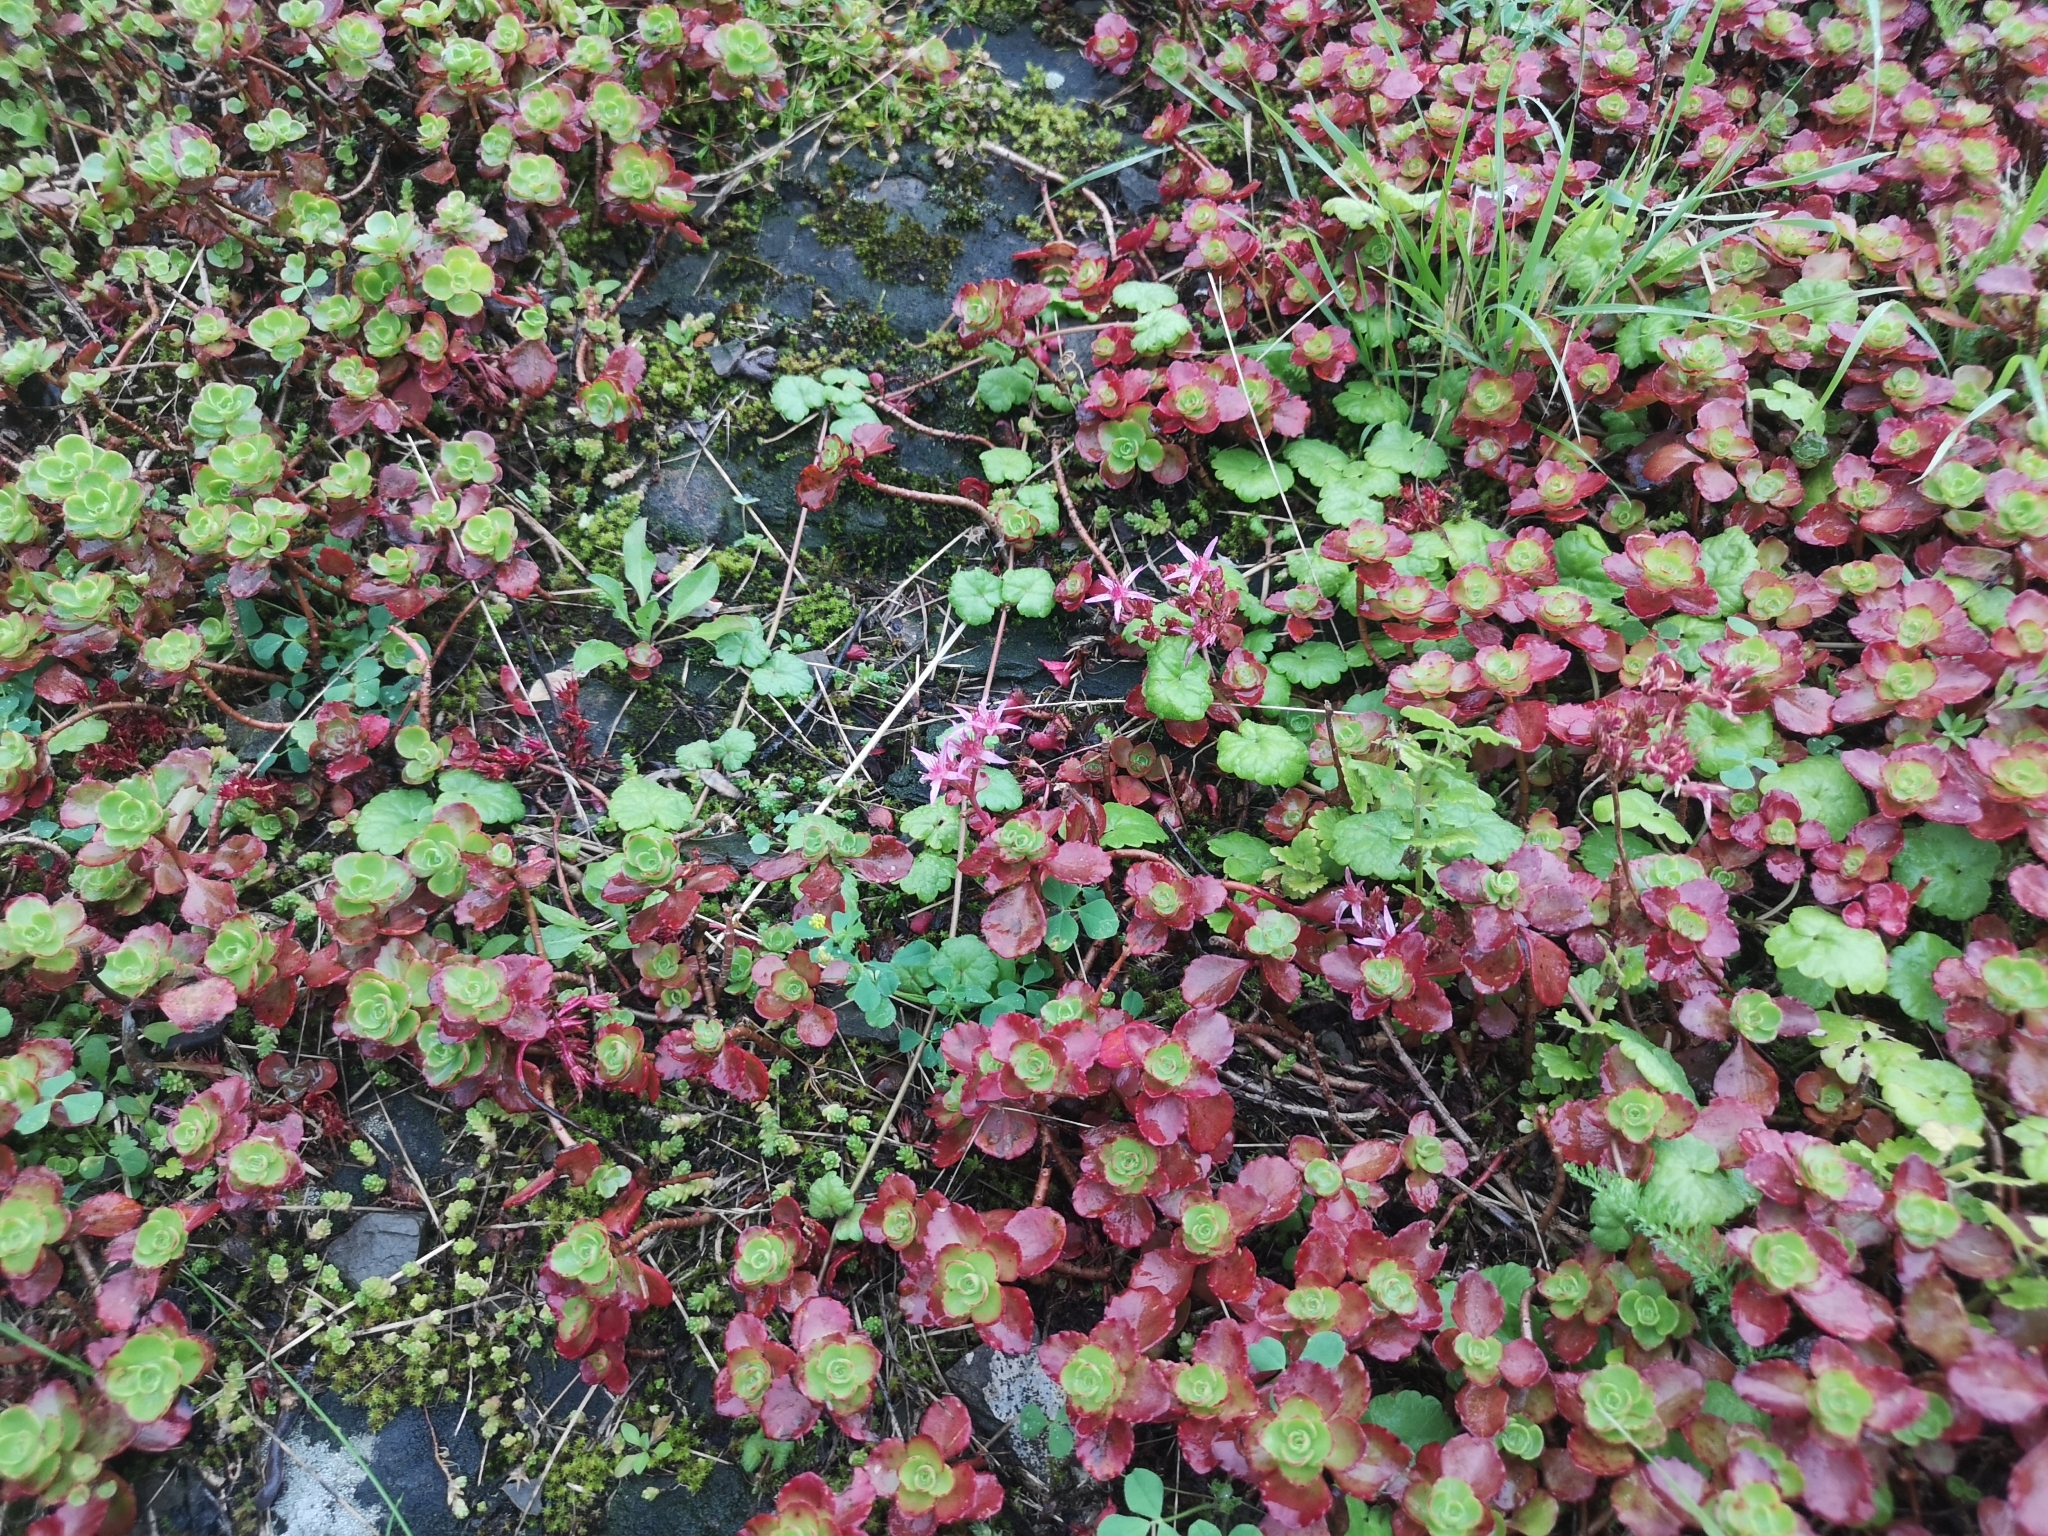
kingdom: Plantae
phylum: Tracheophyta
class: Magnoliopsida
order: Saxifragales
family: Crassulaceae
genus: Phedimus
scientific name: Phedimus spurius
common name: Caucasian stonecrop
